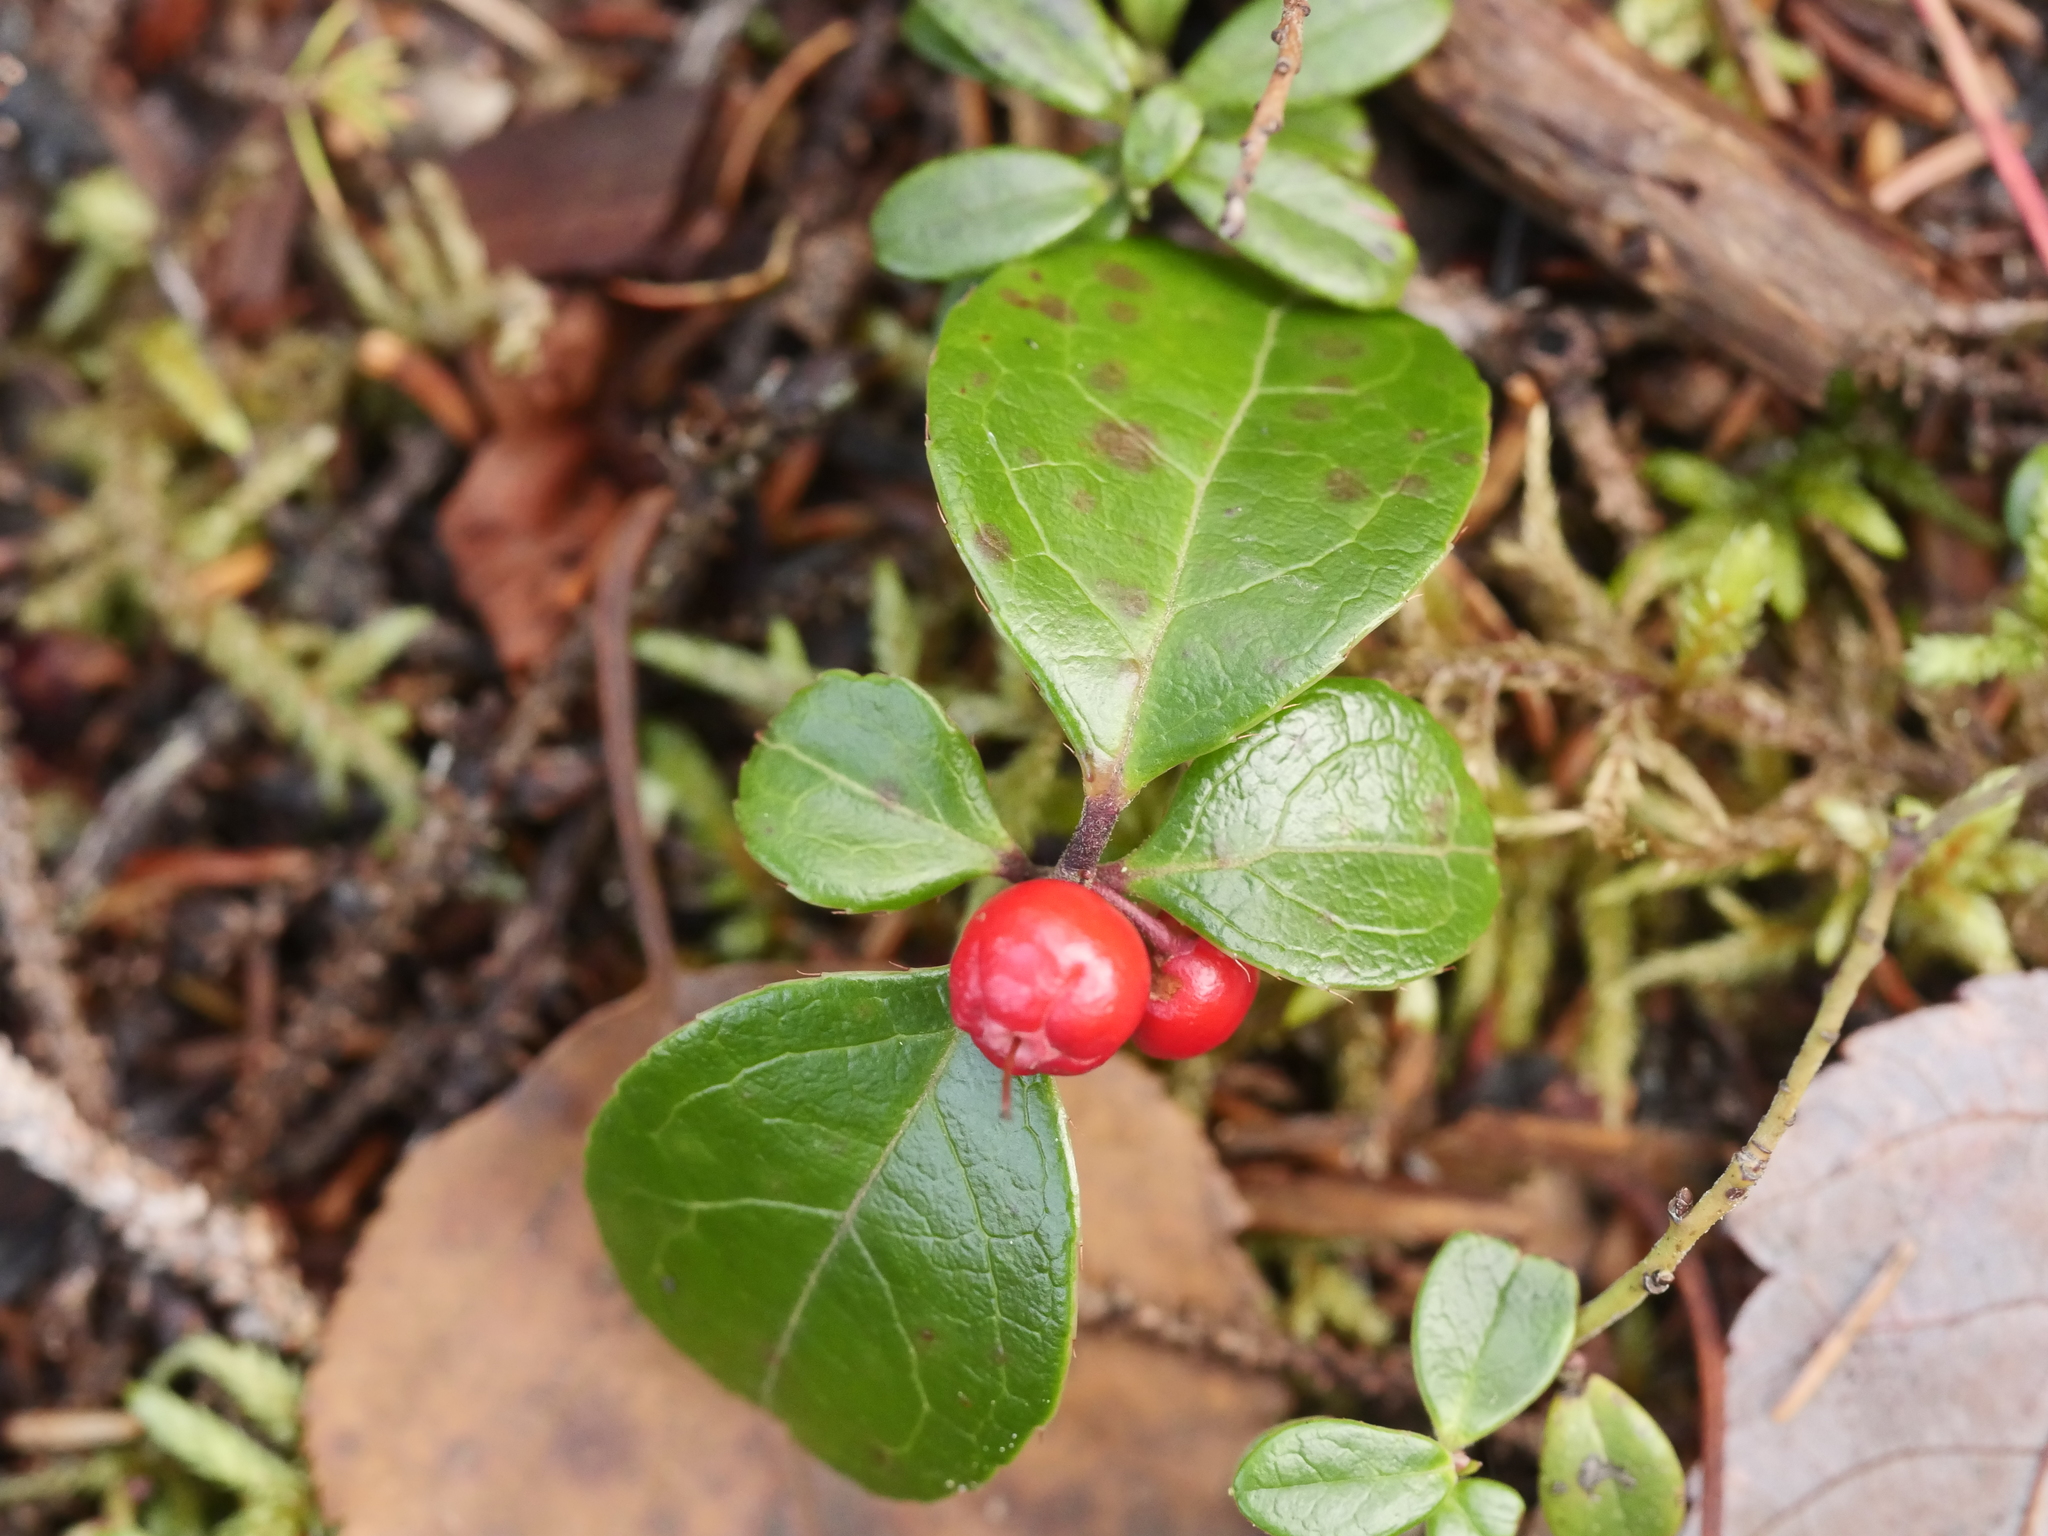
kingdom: Plantae
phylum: Tracheophyta
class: Magnoliopsida
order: Ericales
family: Ericaceae
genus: Gaultheria
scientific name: Gaultheria procumbens
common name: Checkerberry
